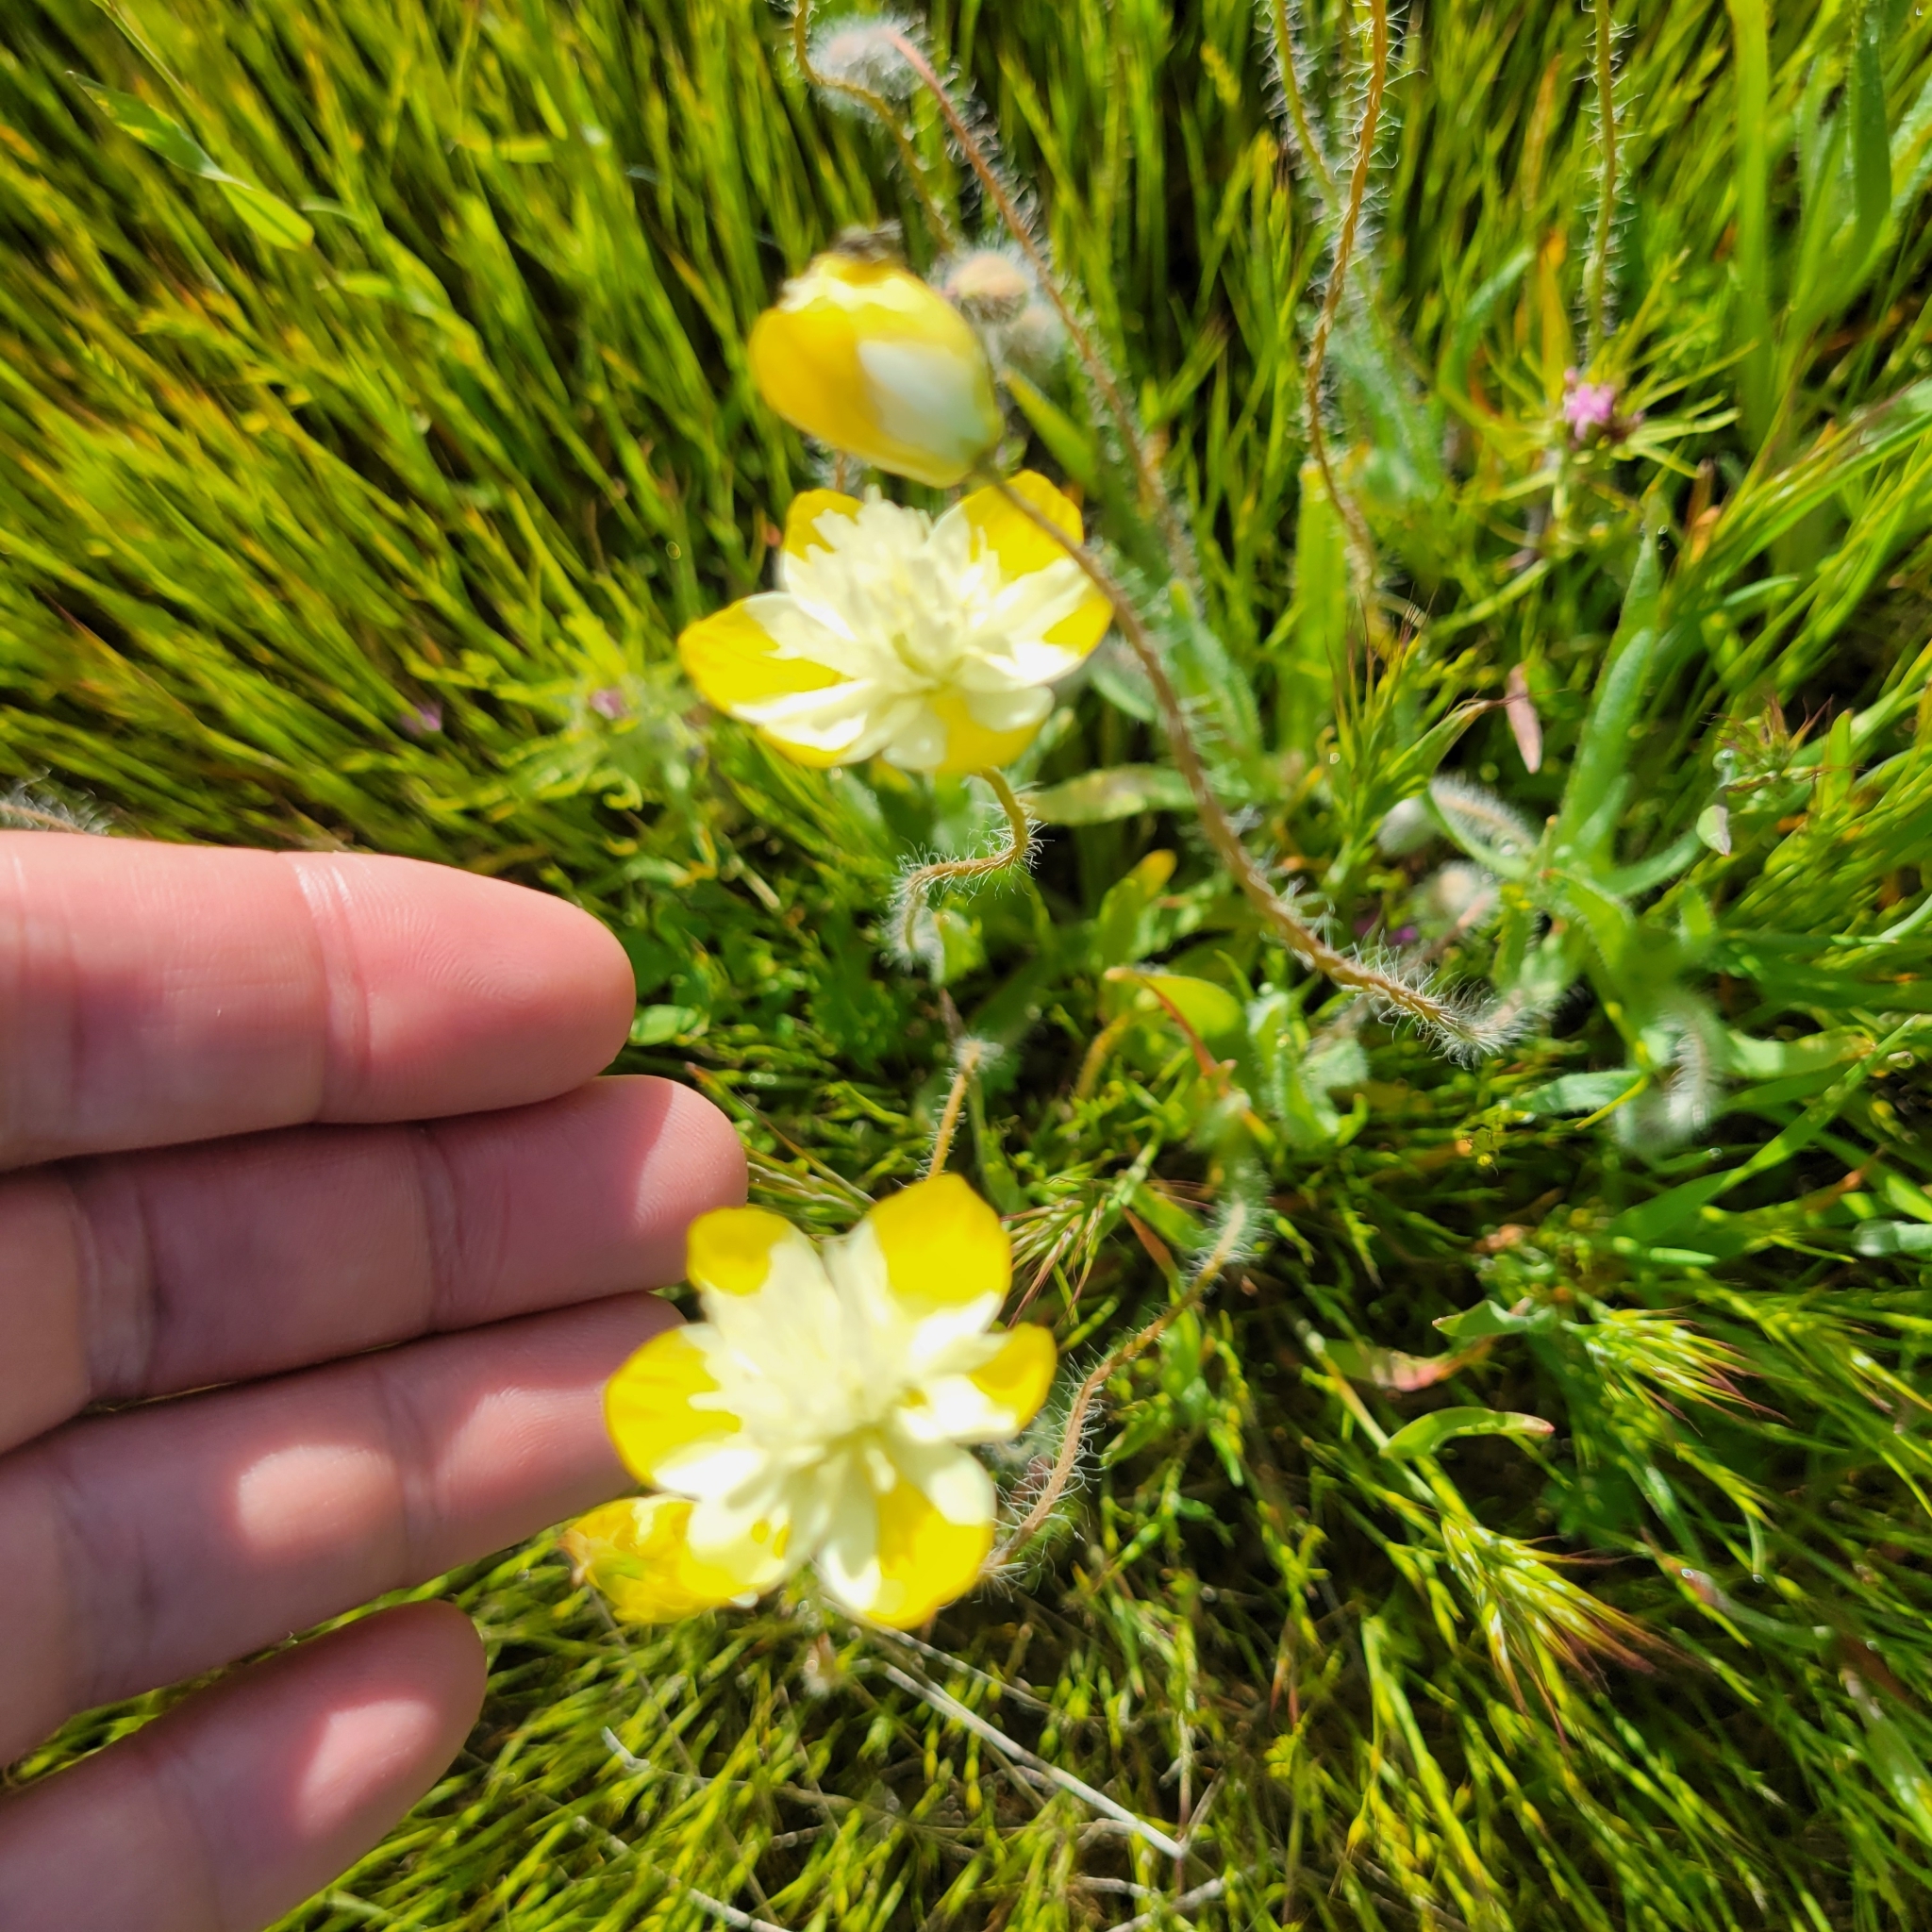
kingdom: Plantae
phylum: Tracheophyta
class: Magnoliopsida
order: Ranunculales
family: Papaveraceae
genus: Platystemon
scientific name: Platystemon californicus
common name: Cream-cups
